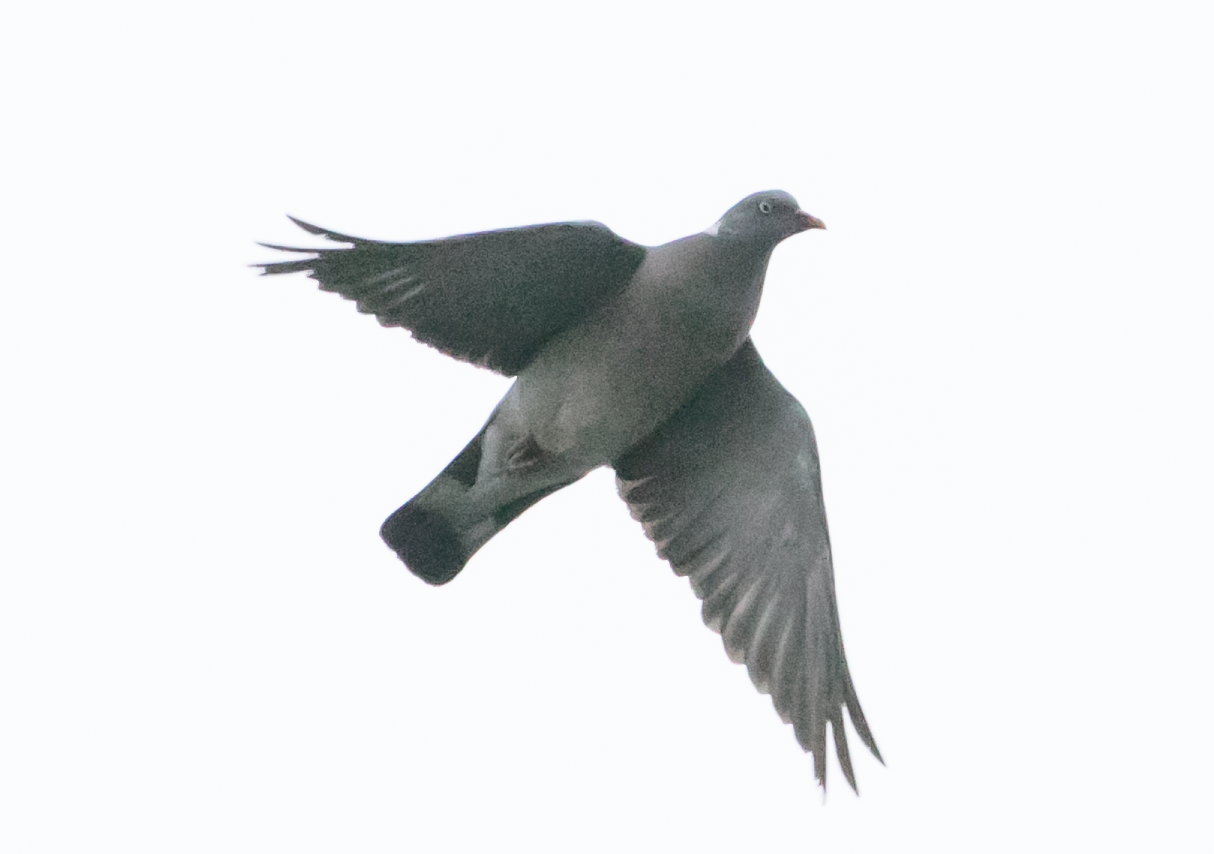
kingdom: Animalia
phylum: Chordata
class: Aves
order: Columbiformes
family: Columbidae
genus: Columba
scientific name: Columba palumbus
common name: Common wood pigeon
